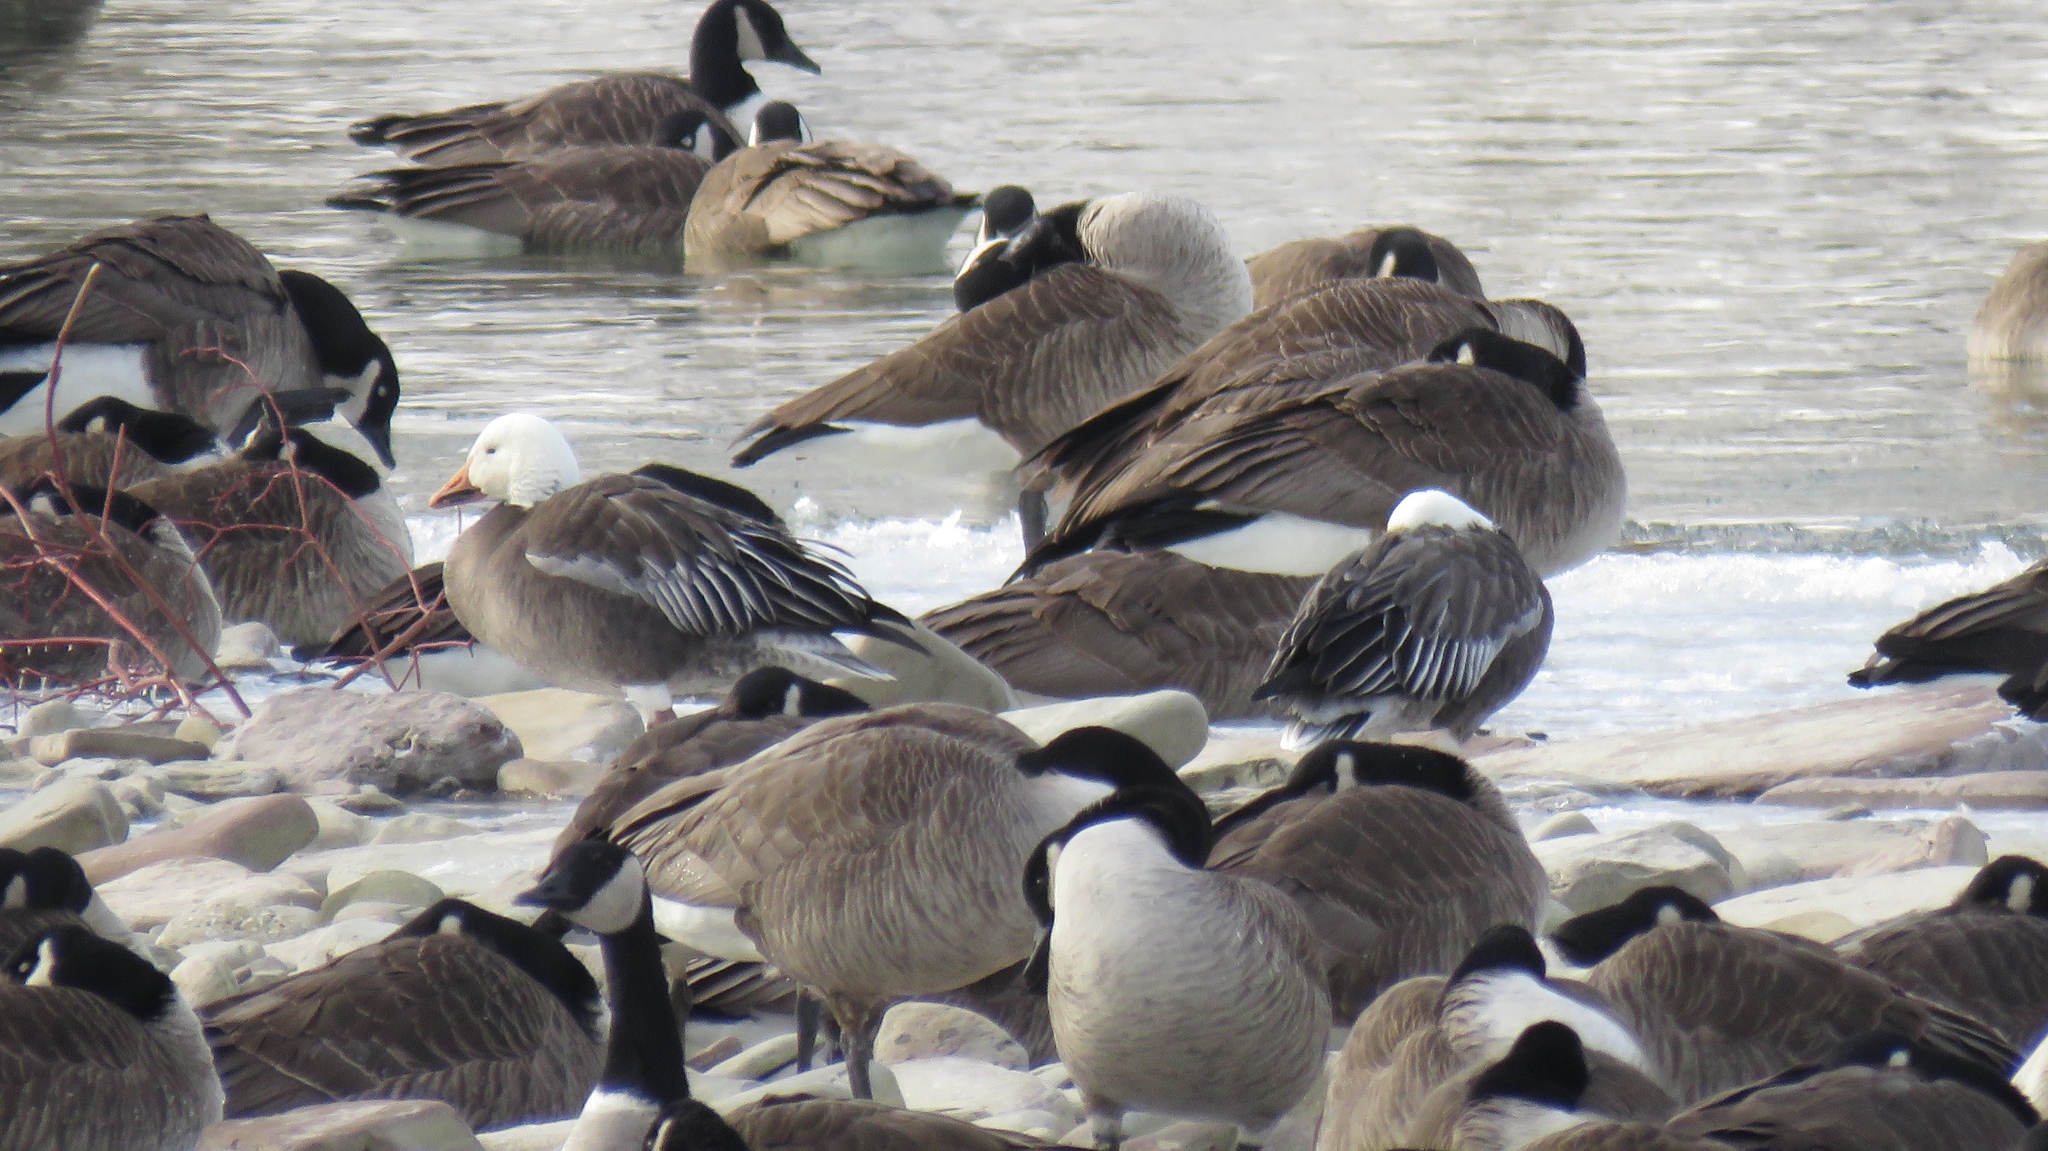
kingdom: Animalia
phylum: Chordata
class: Aves
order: Anseriformes
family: Anatidae
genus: Anser
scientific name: Anser caerulescens
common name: Snow goose
